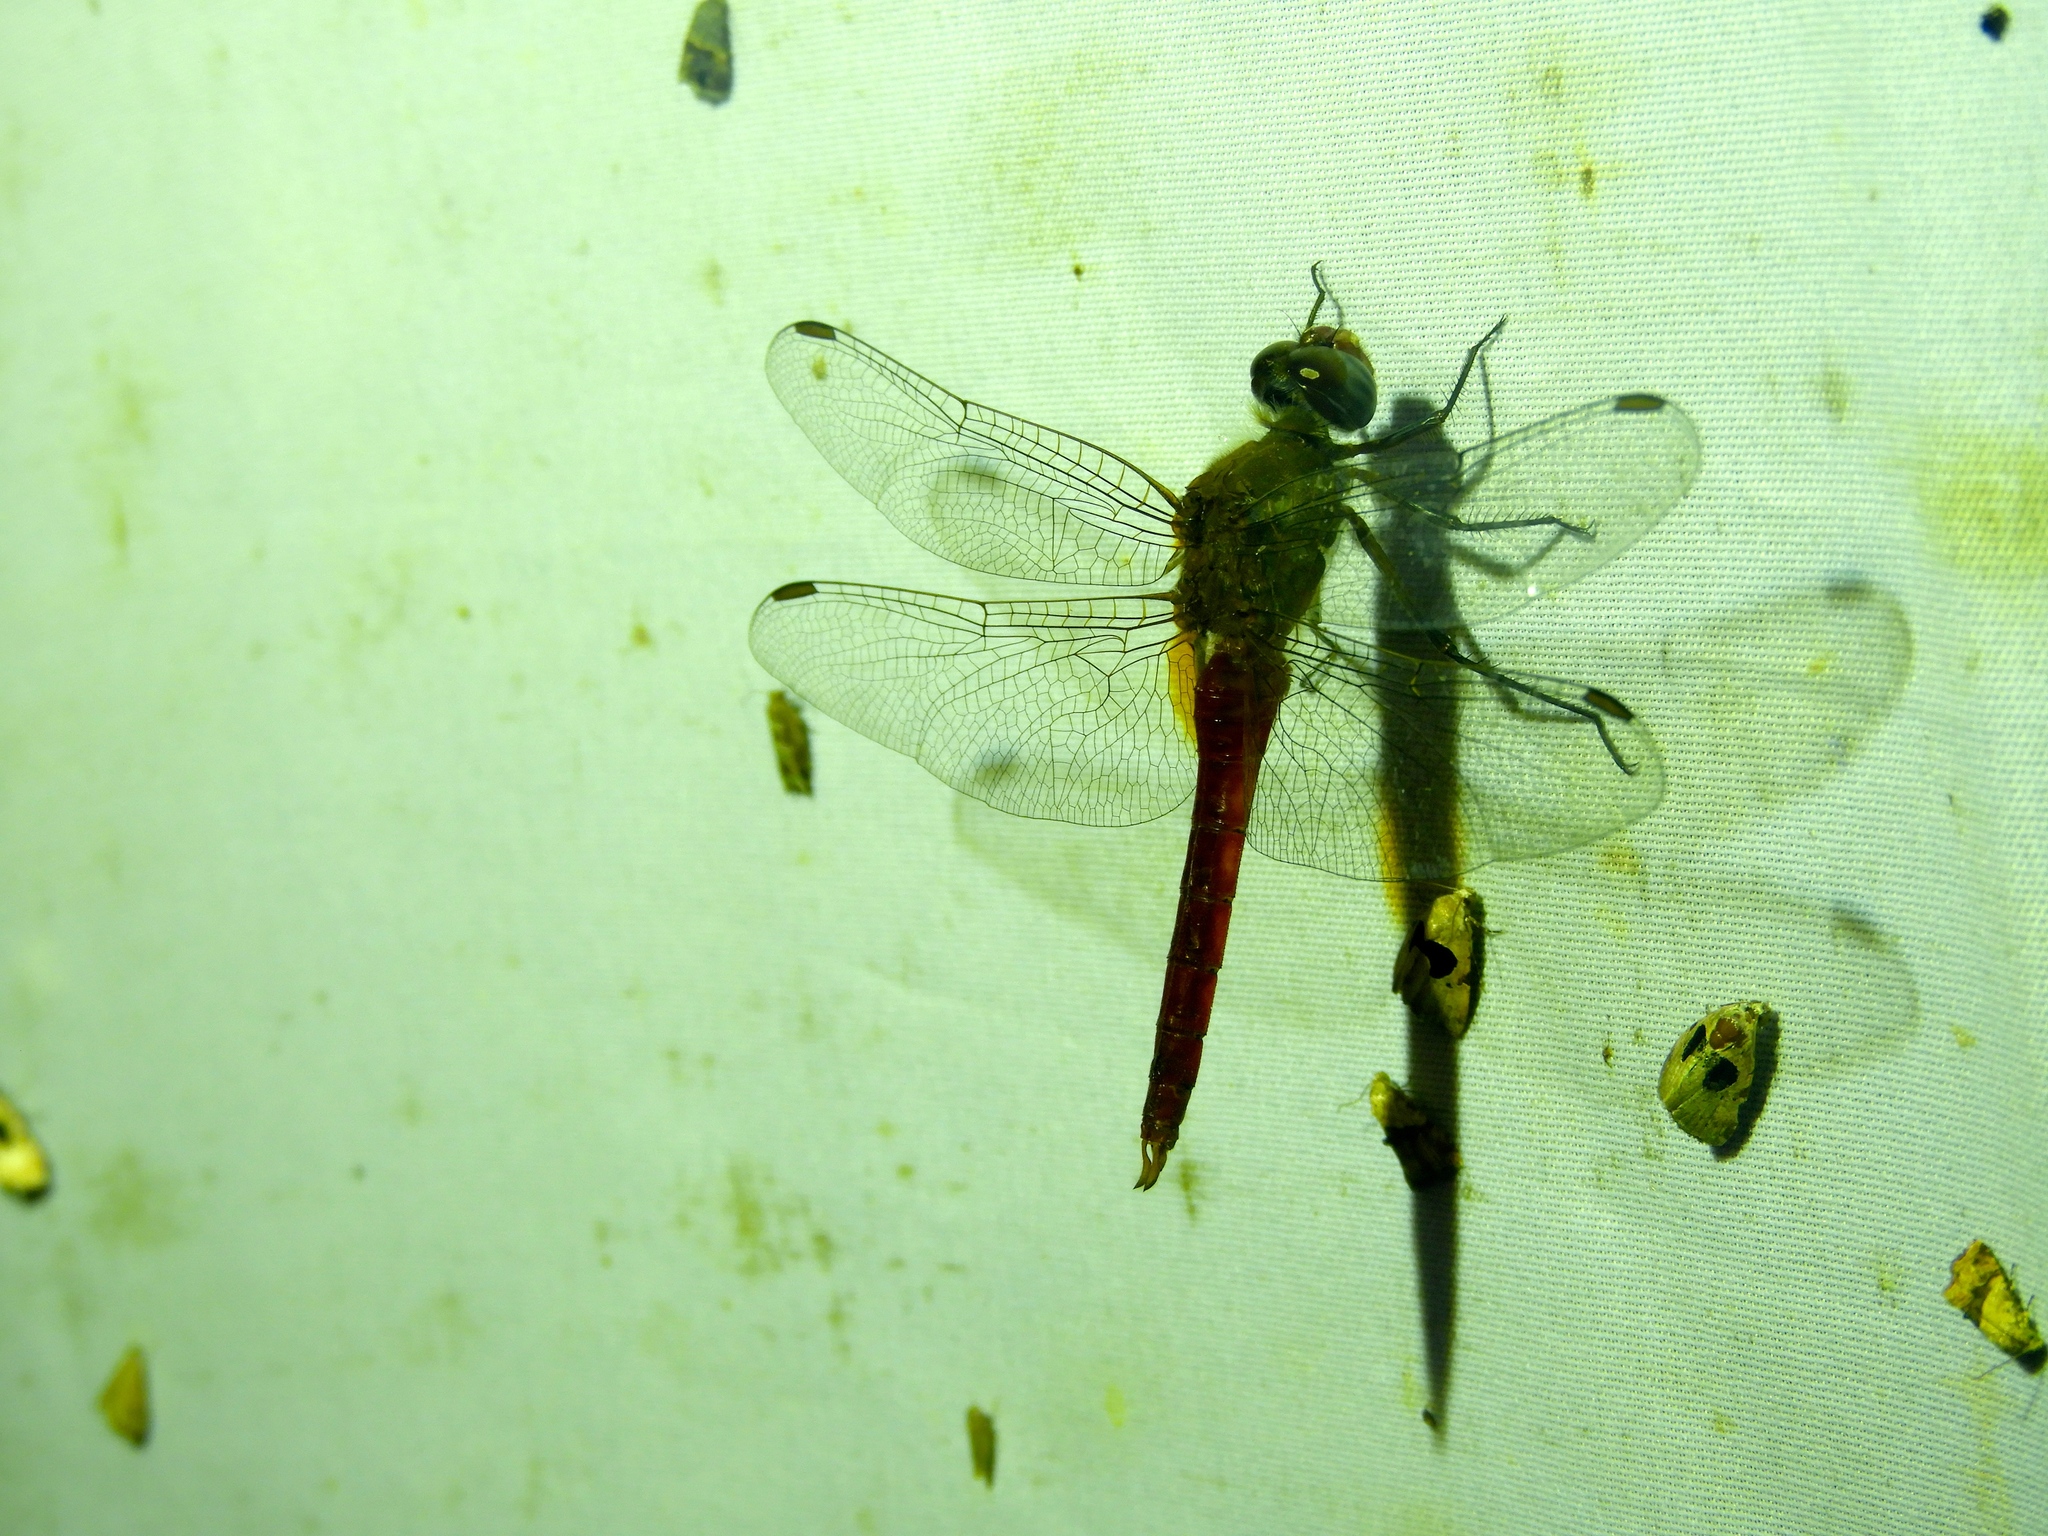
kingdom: Animalia
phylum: Arthropoda
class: Insecta
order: Odonata
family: Libellulidae
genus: Brachymesia
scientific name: Brachymesia furcata
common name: Red-taled pennant
